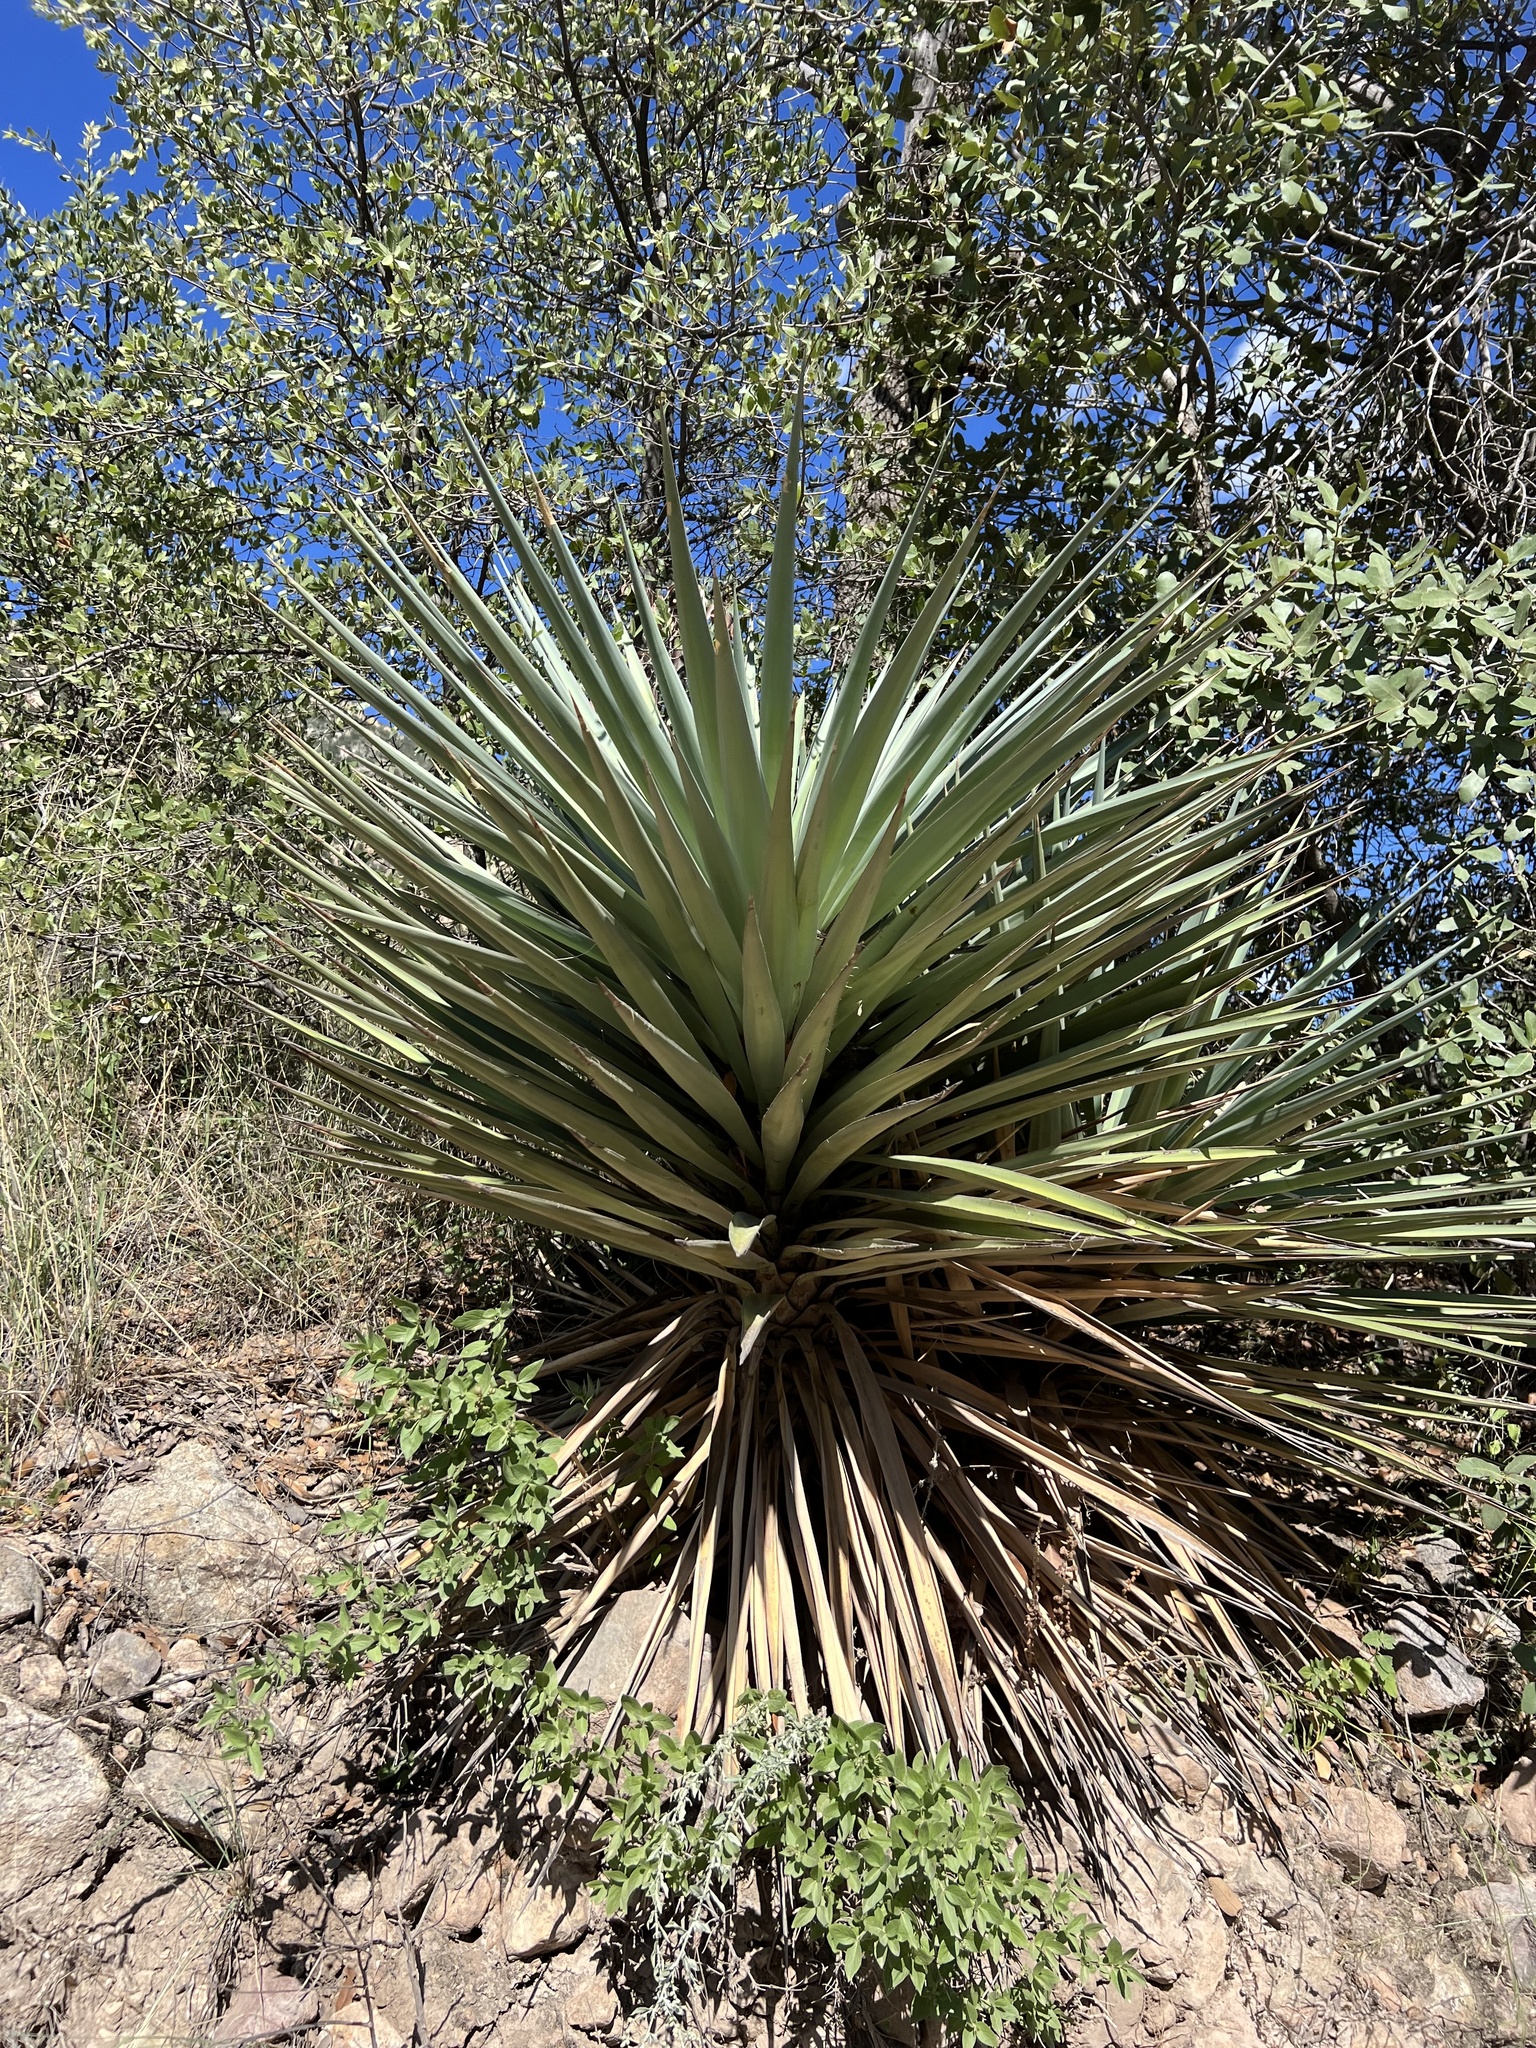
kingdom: Plantae
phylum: Tracheophyta
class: Liliopsida
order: Asparagales
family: Asparagaceae
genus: Yucca
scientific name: Yucca schottii
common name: Hoary yucca
